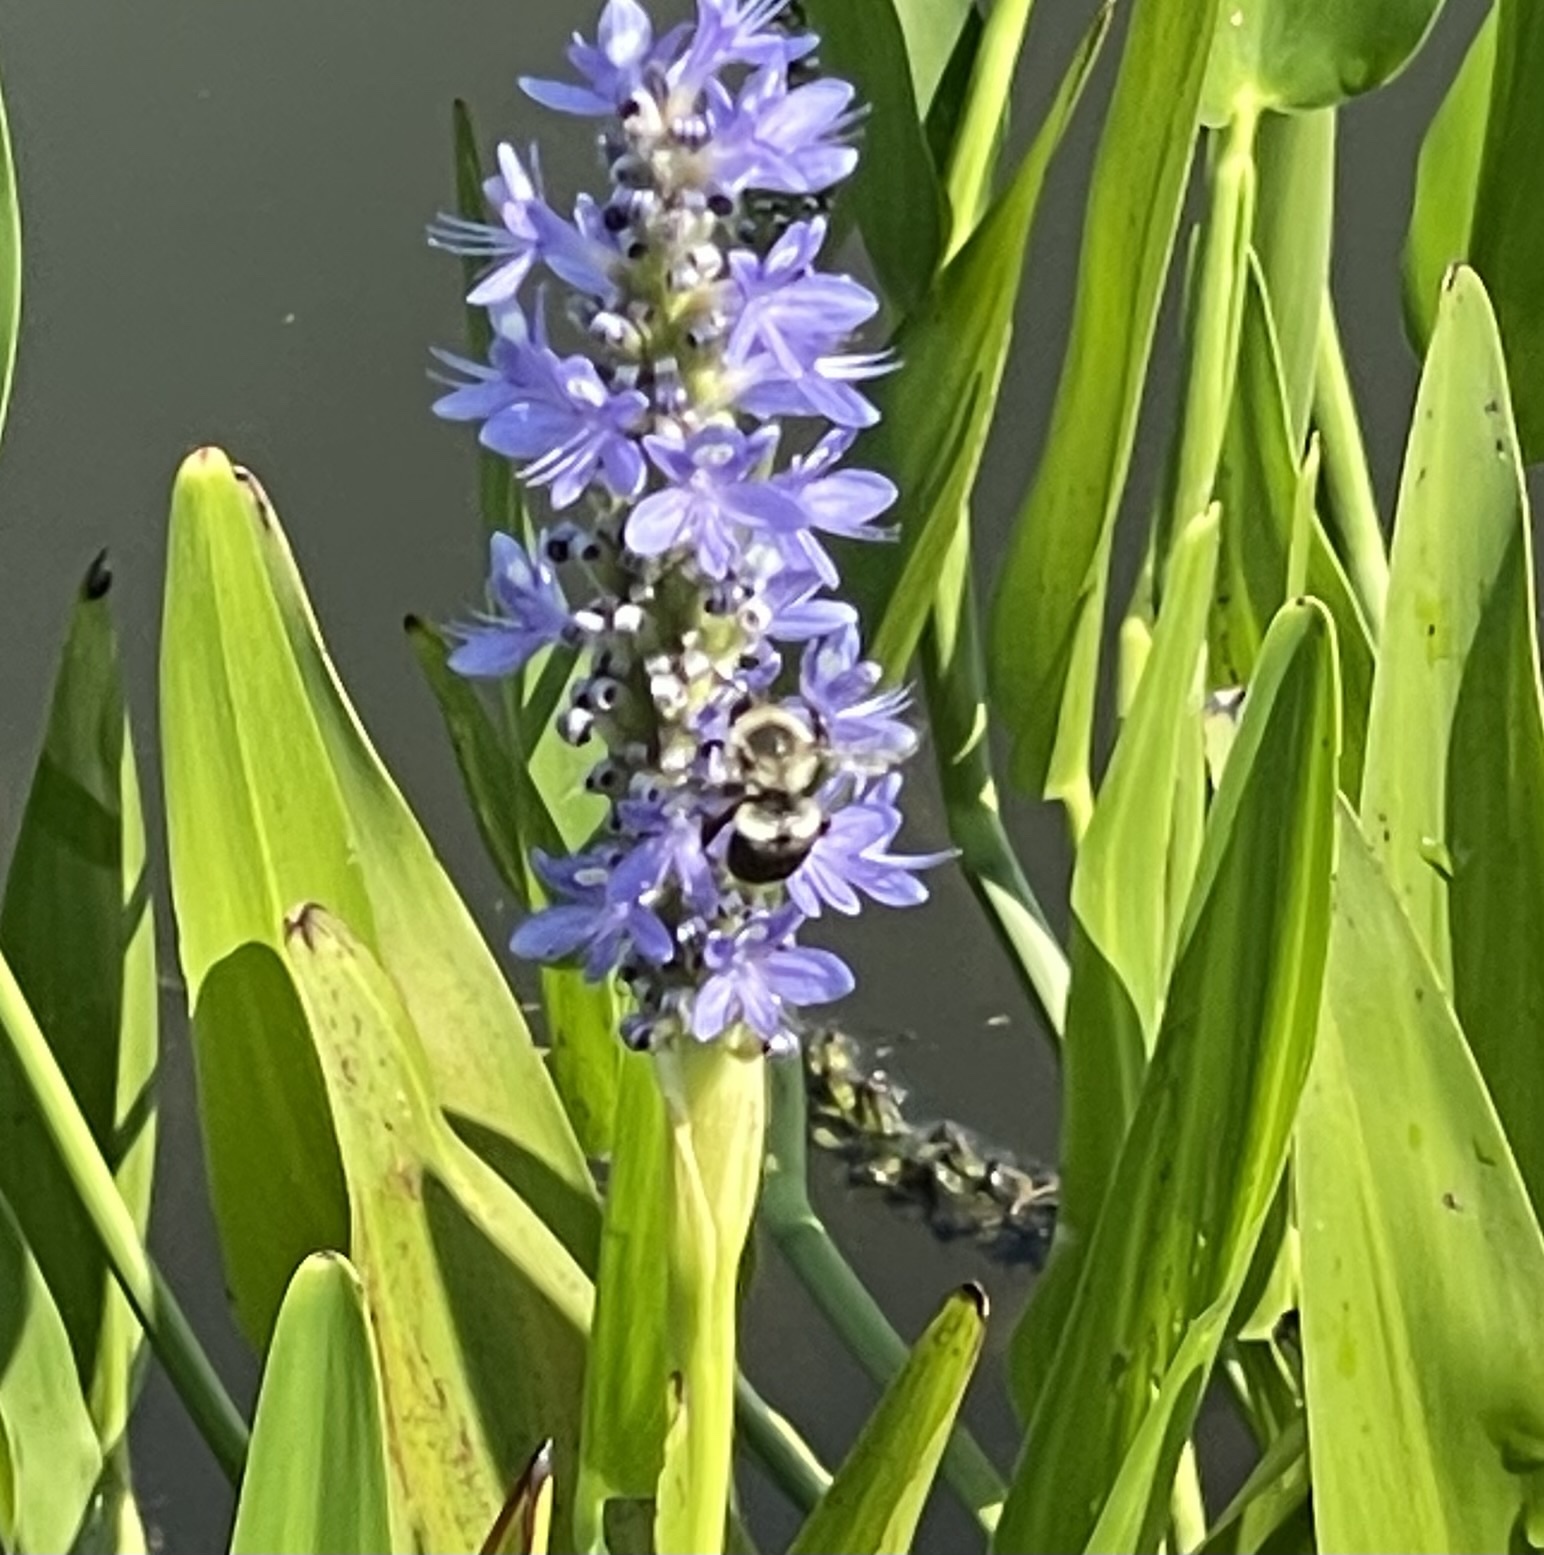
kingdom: Animalia
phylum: Arthropoda
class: Insecta
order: Hymenoptera
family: Apidae
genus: Bombus
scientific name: Bombus impatiens
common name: Common eastern bumble bee
